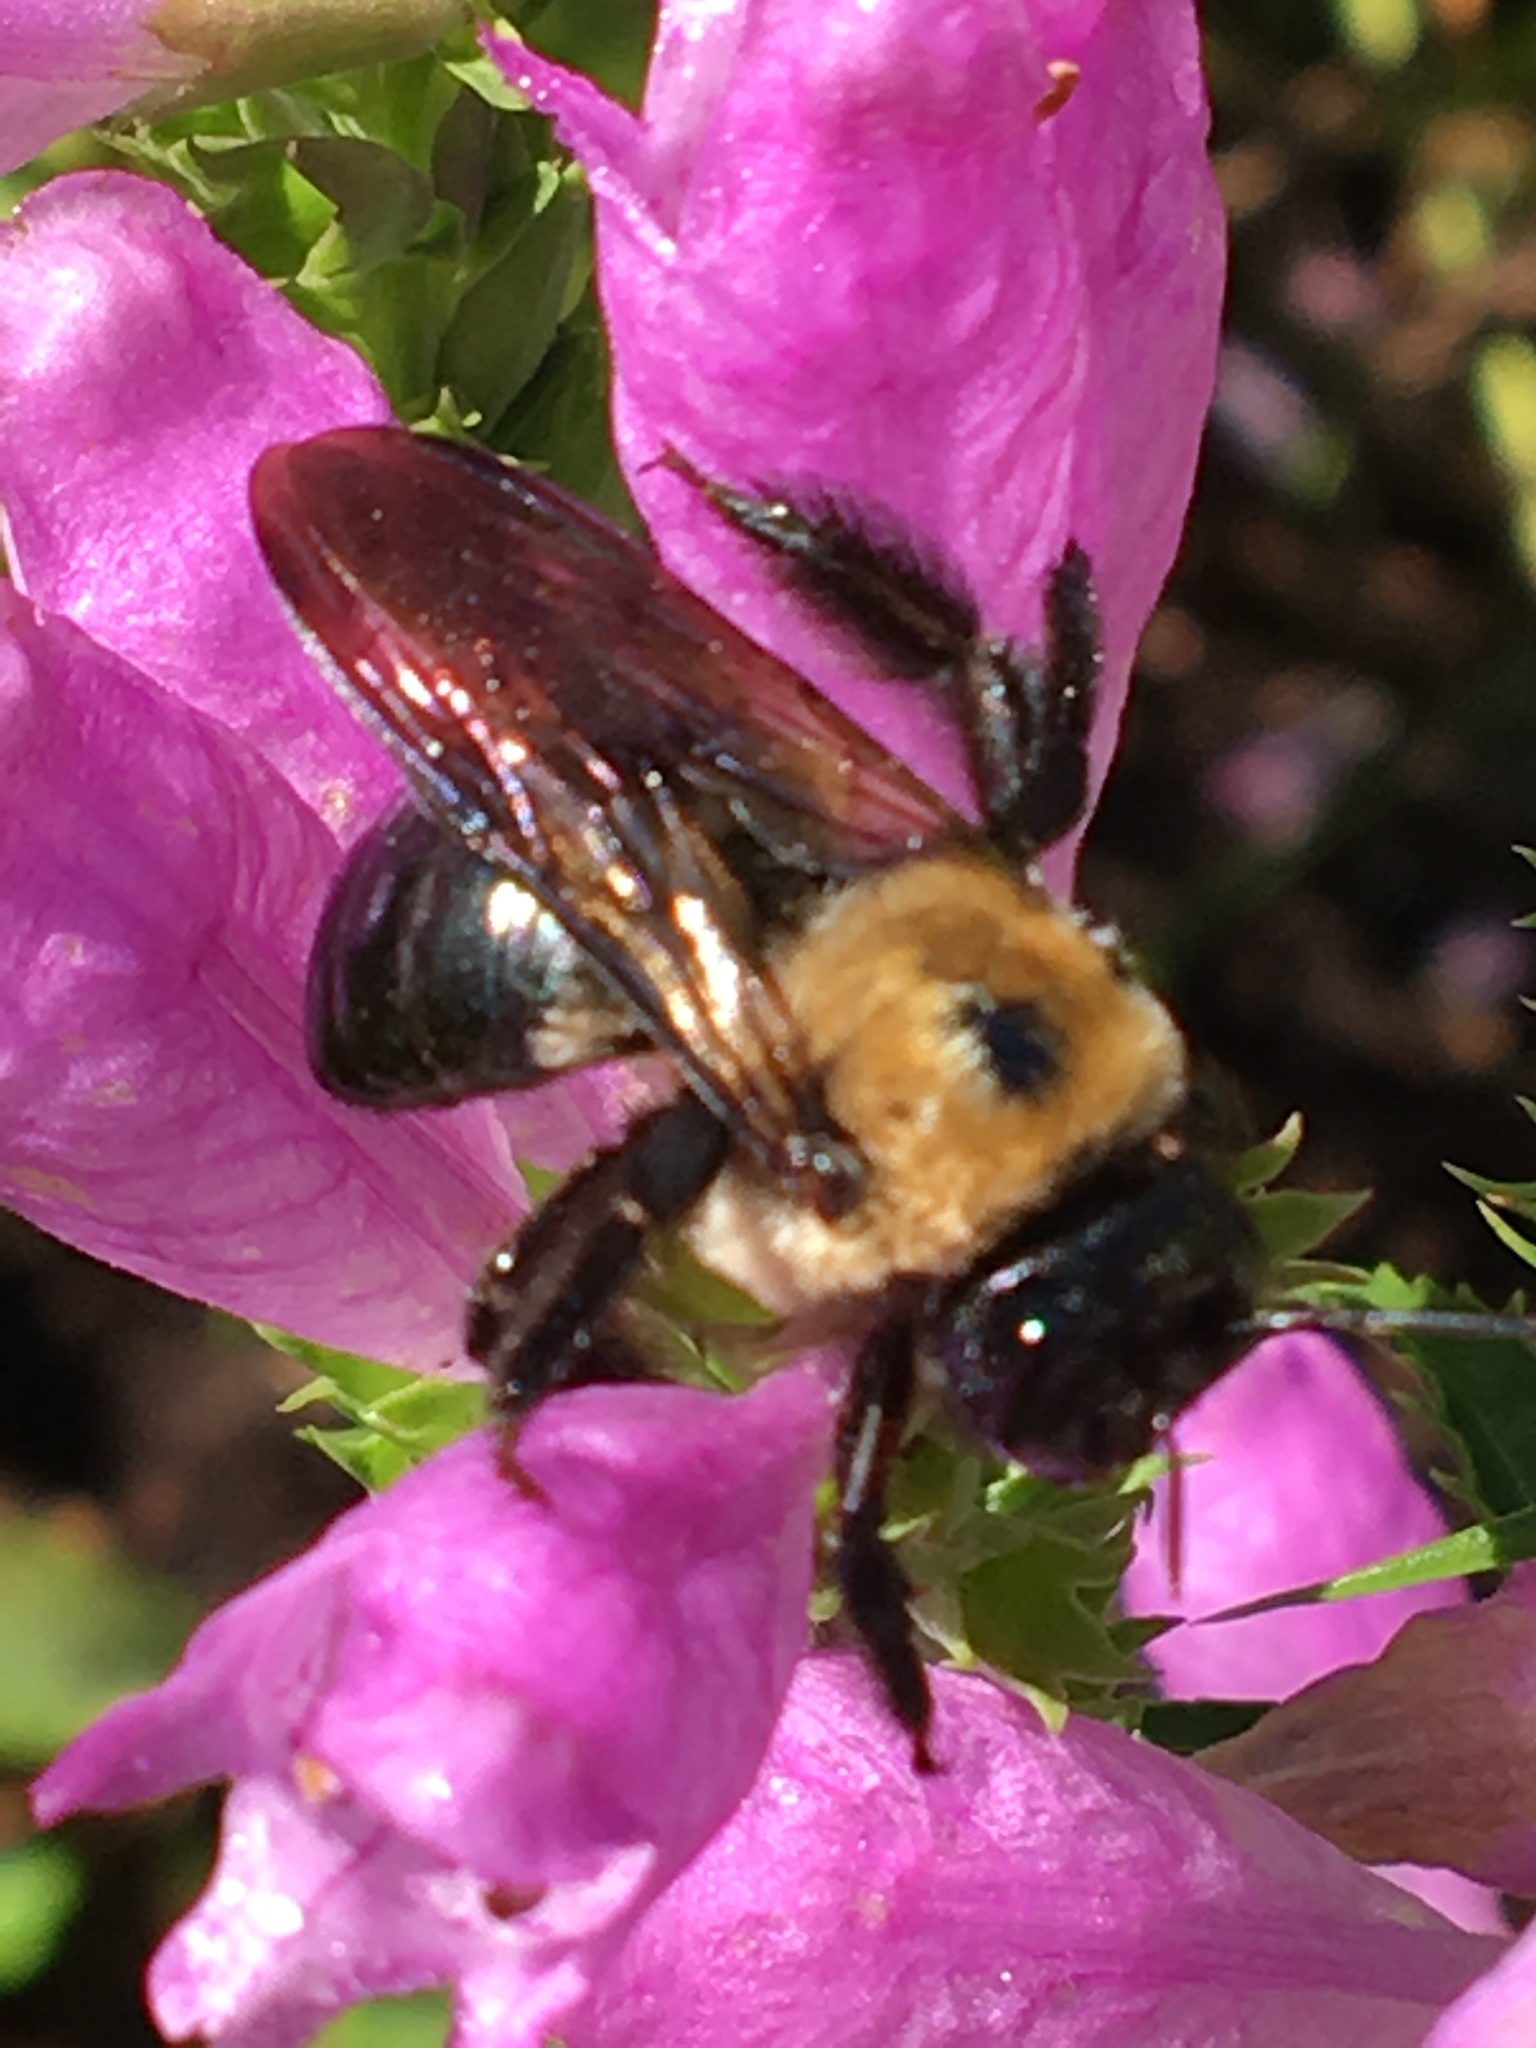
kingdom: Animalia
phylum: Arthropoda
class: Insecta
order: Hymenoptera
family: Apidae
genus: Xylocopa
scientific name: Xylocopa virginica
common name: Carpenter bee
